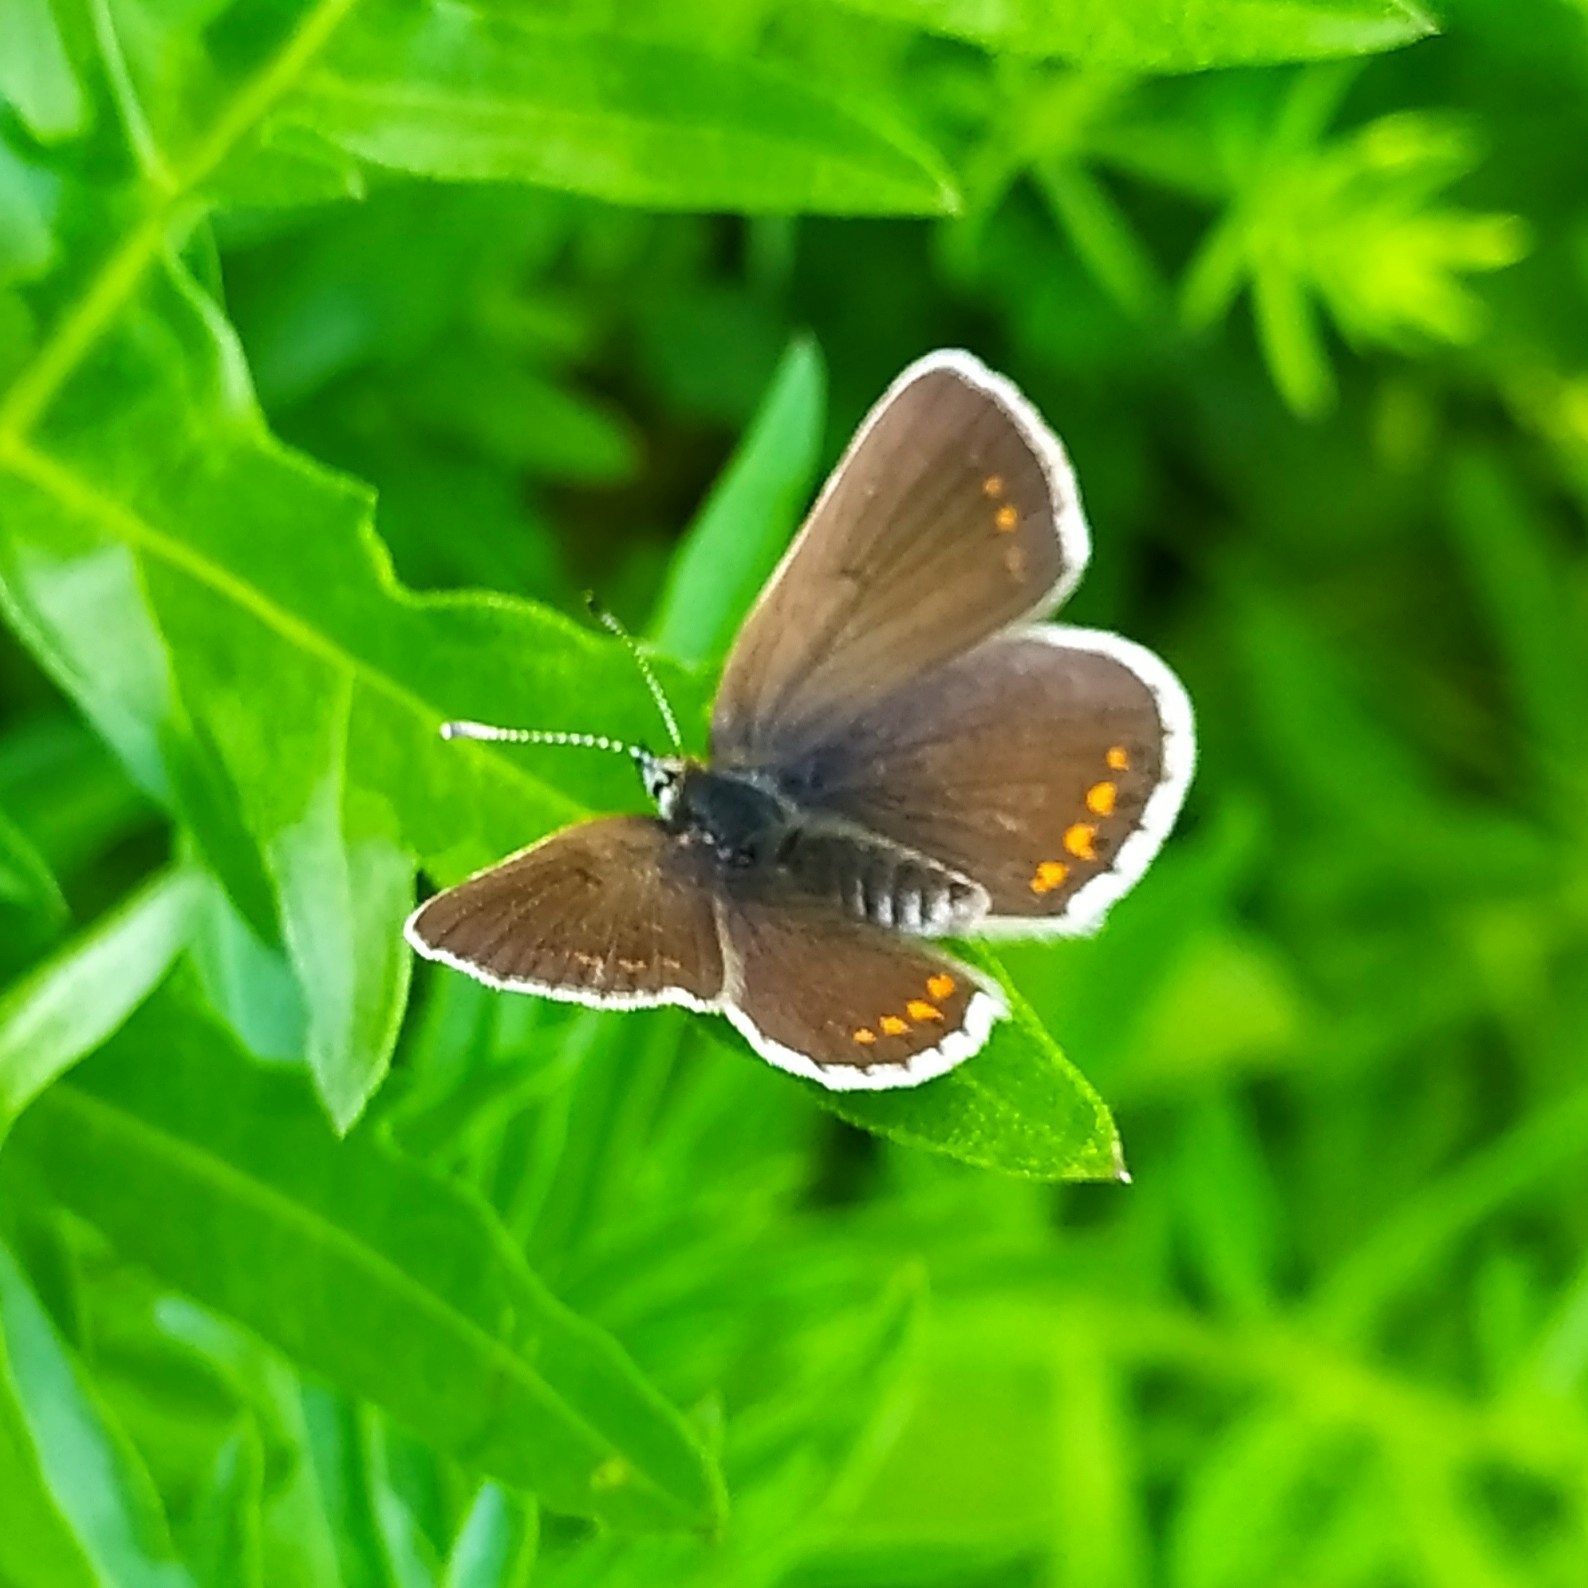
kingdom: Animalia
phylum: Arthropoda
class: Insecta
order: Lepidoptera
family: Lycaenidae
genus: Polyommatus
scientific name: Polyommatus icarus
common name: Common blue
